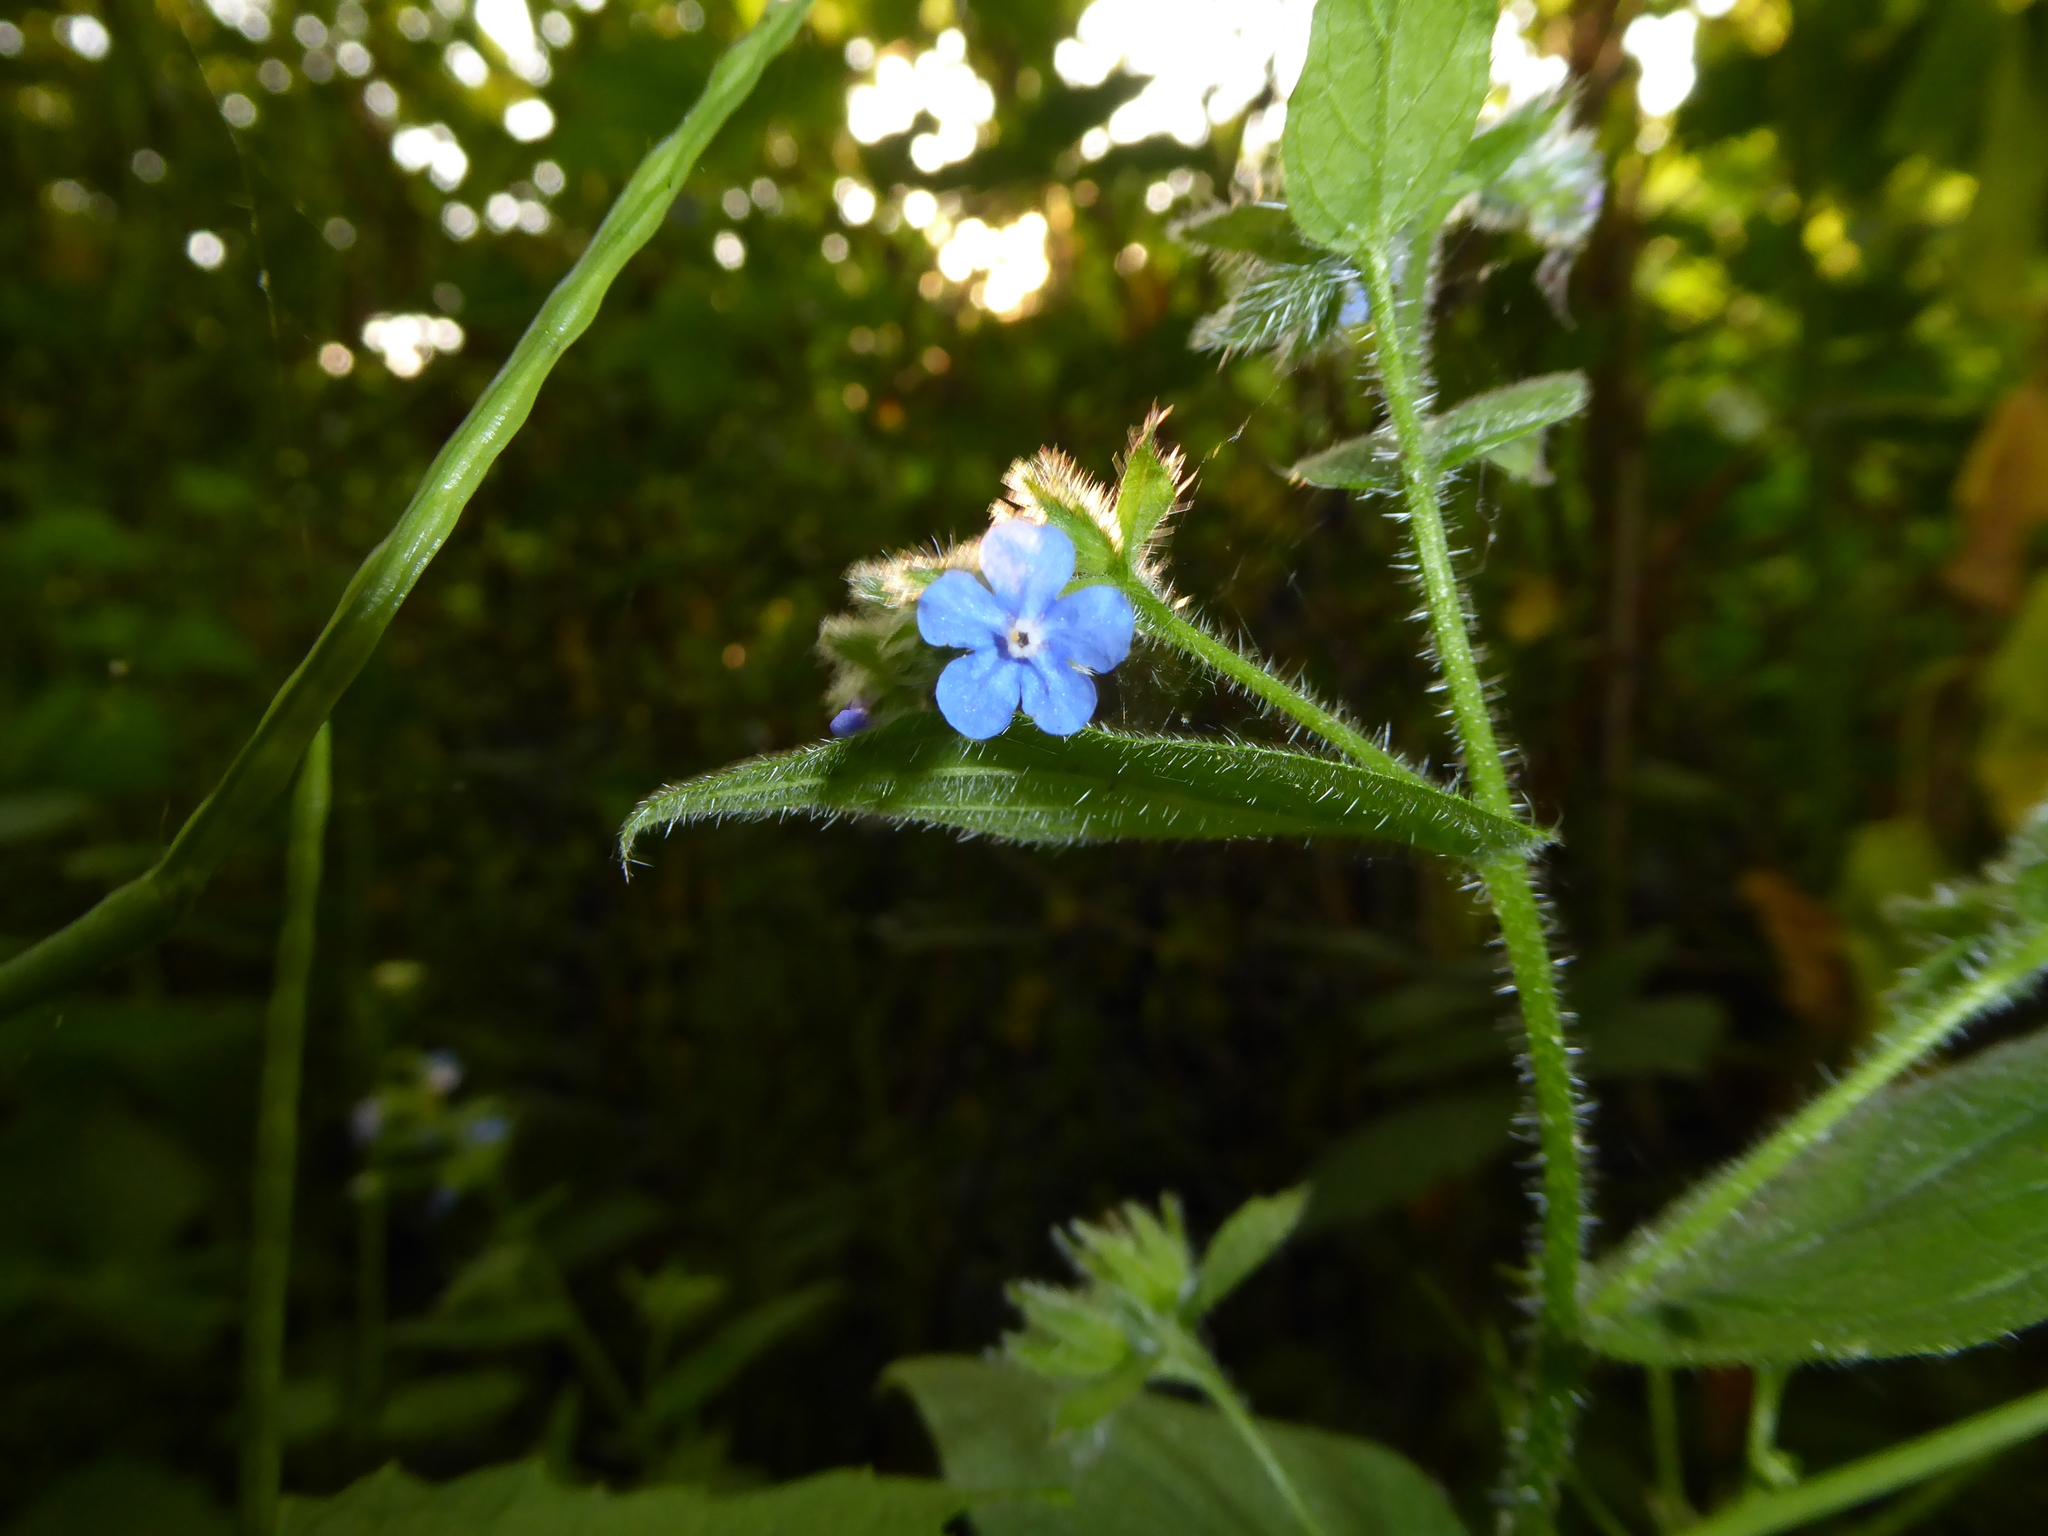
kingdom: Plantae
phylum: Tracheophyta
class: Magnoliopsida
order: Boraginales
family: Boraginaceae
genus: Pentaglottis
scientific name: Pentaglottis sempervirens
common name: Green alkanet
